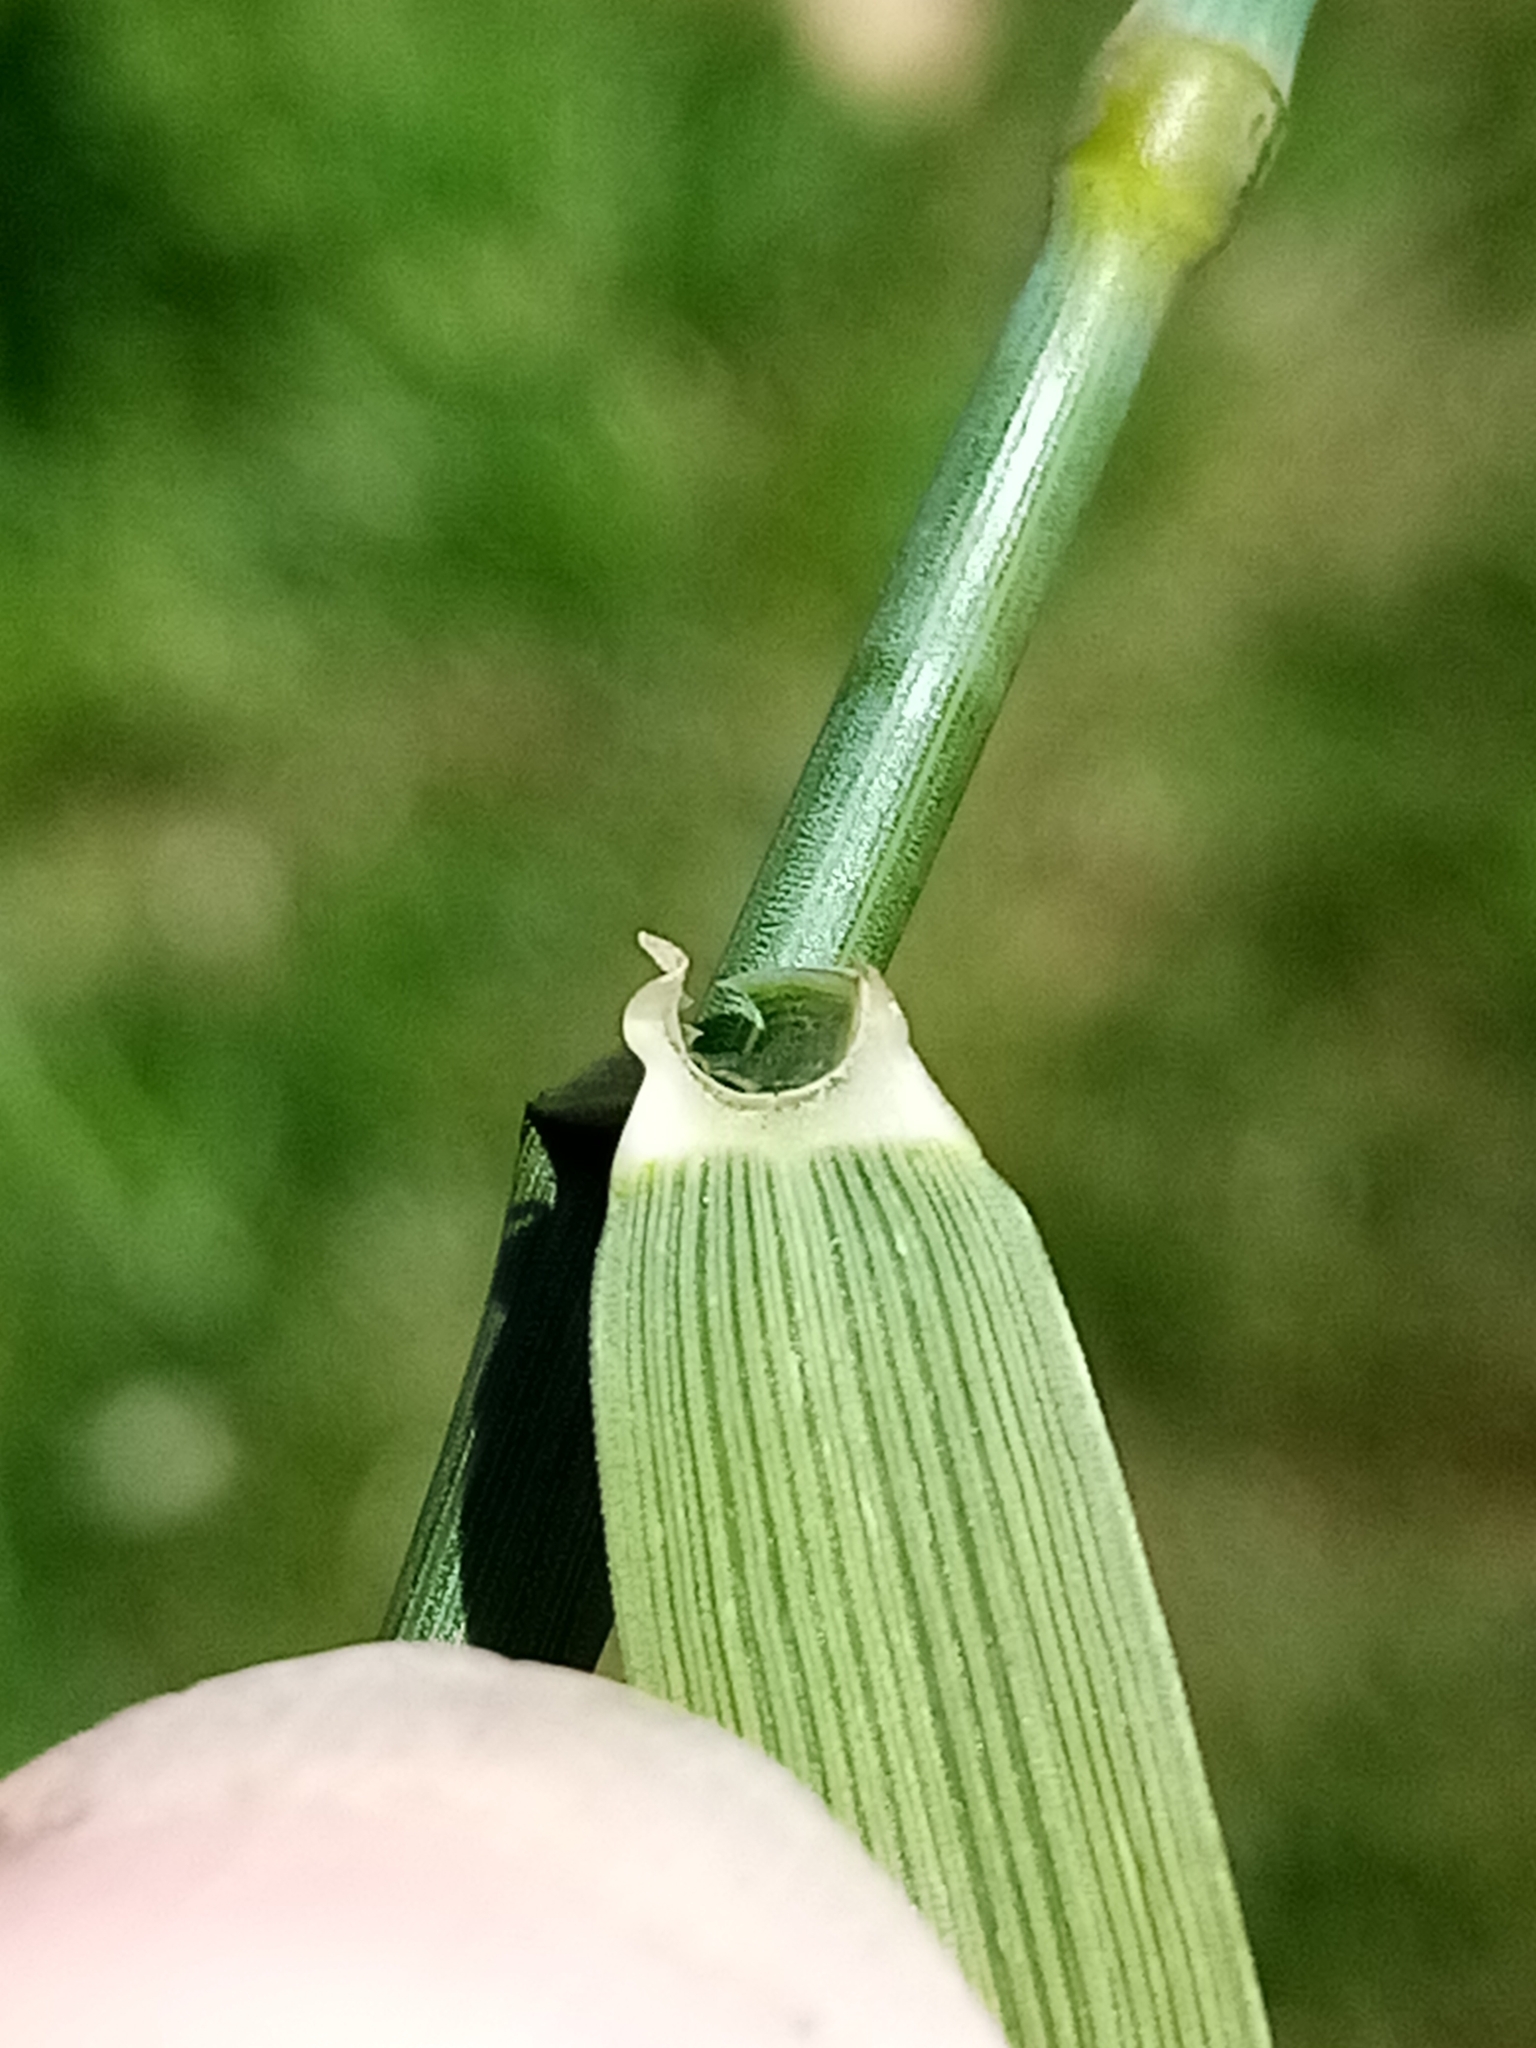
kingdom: Plantae
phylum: Tracheophyta
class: Liliopsida
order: Poales
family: Poaceae
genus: Elymus
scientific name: Elymus repens
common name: Quackgrass
